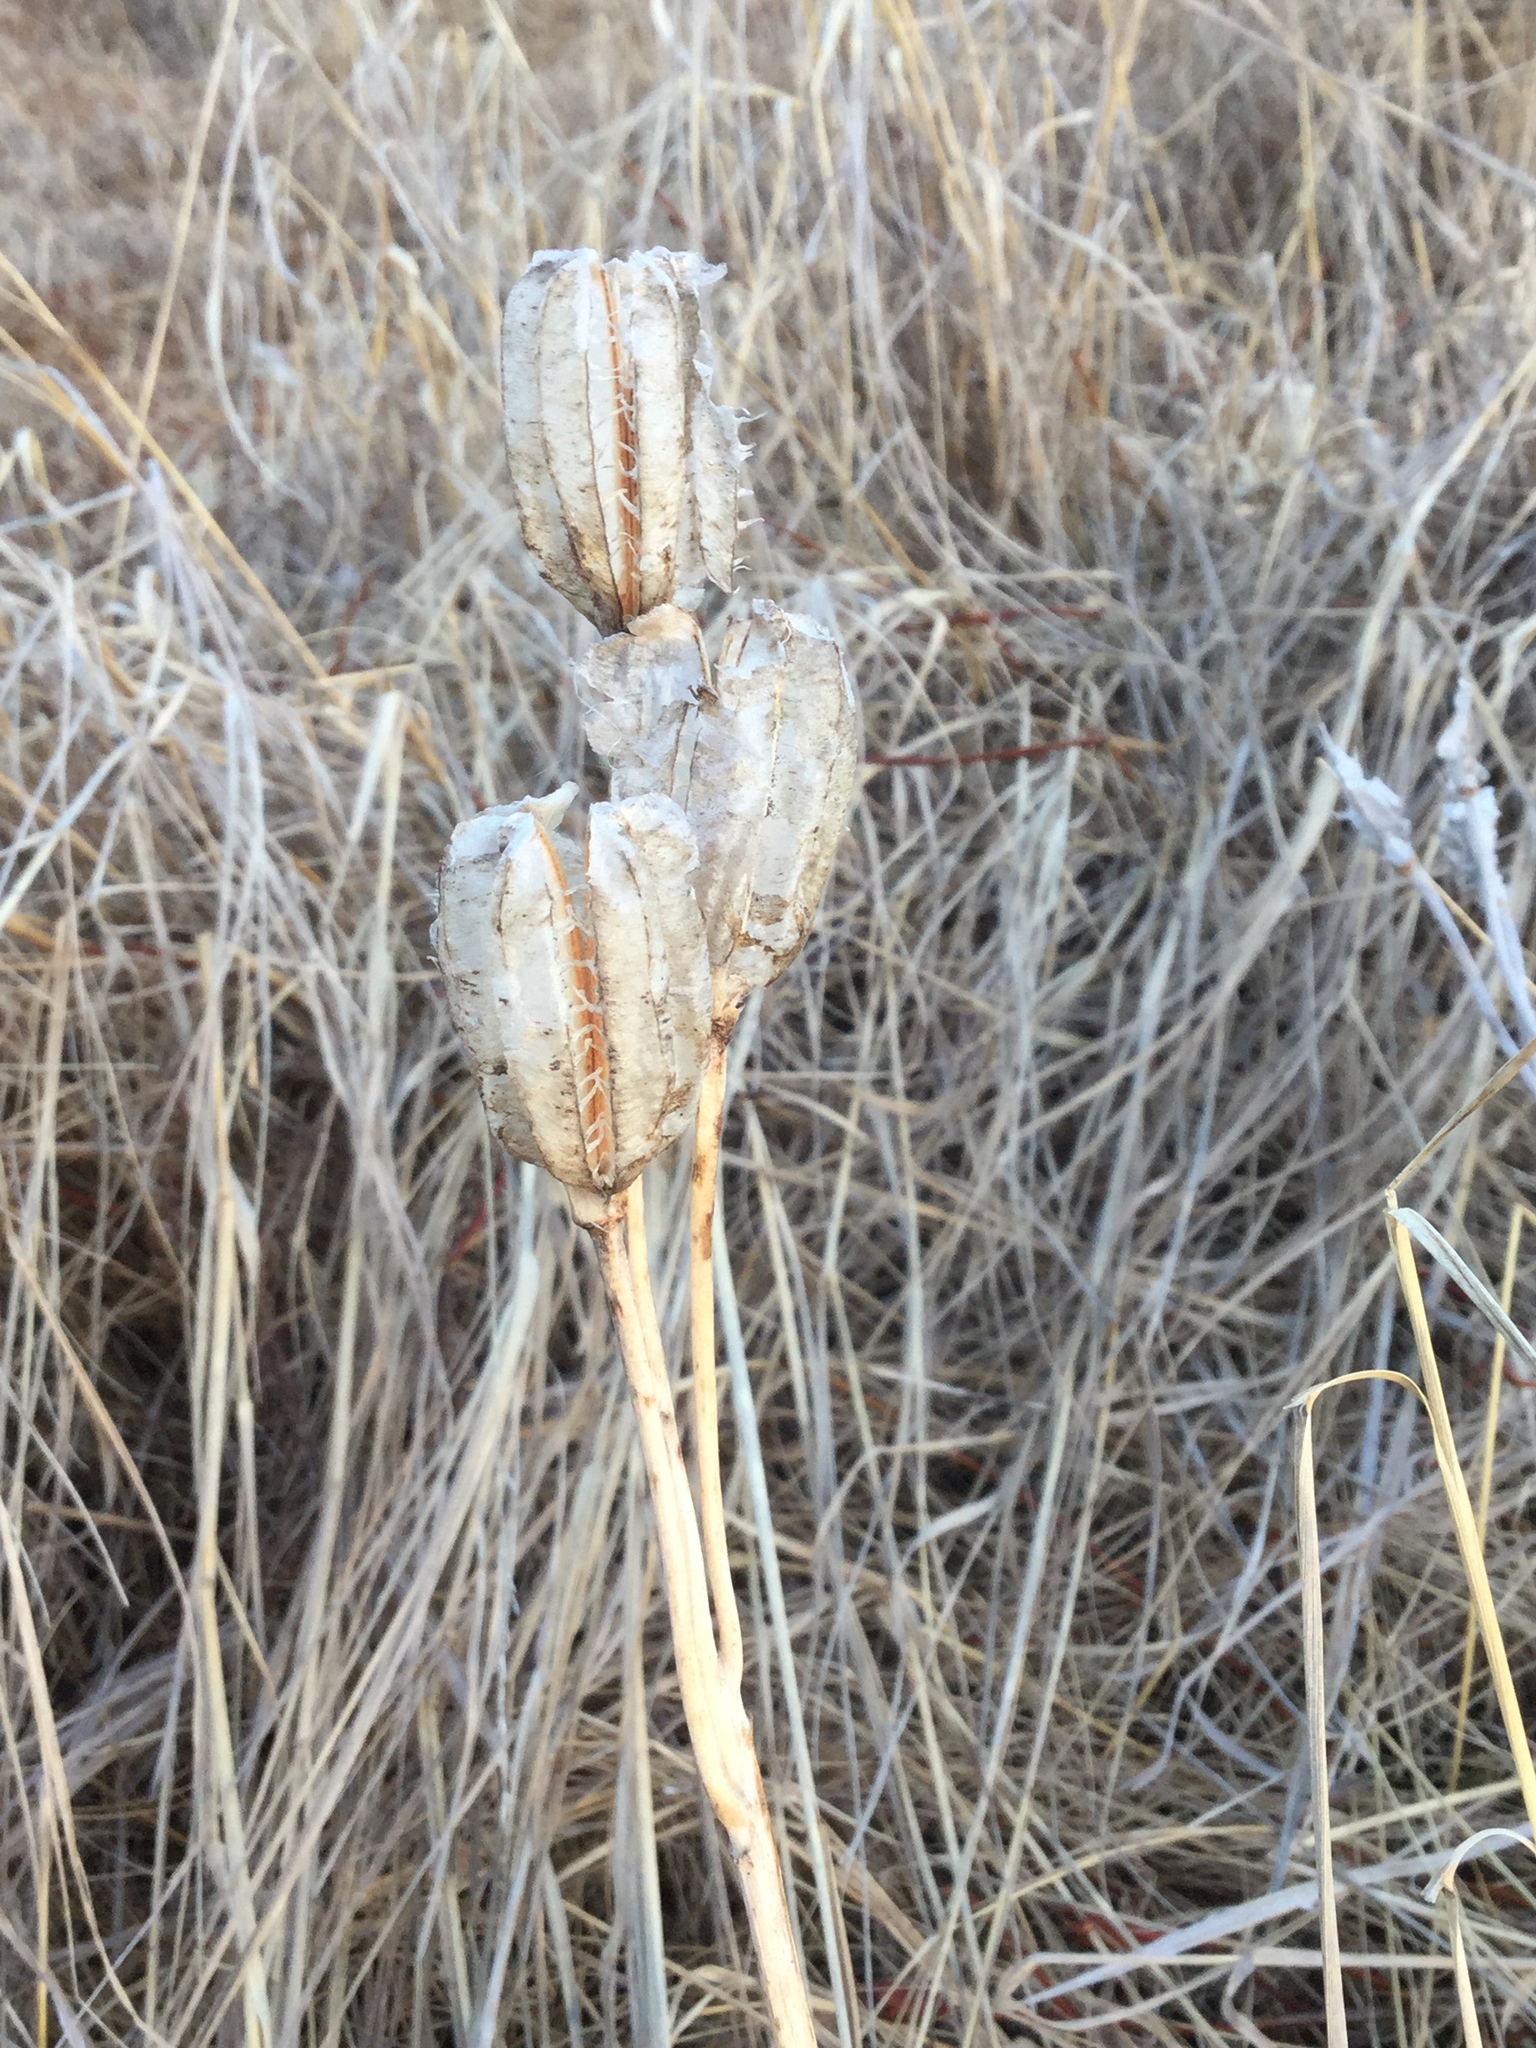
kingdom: Plantae
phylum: Tracheophyta
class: Liliopsida
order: Liliales
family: Liliaceae
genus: Fritillaria
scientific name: Fritillaria camschatcensis
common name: Kamchatka fritillary
